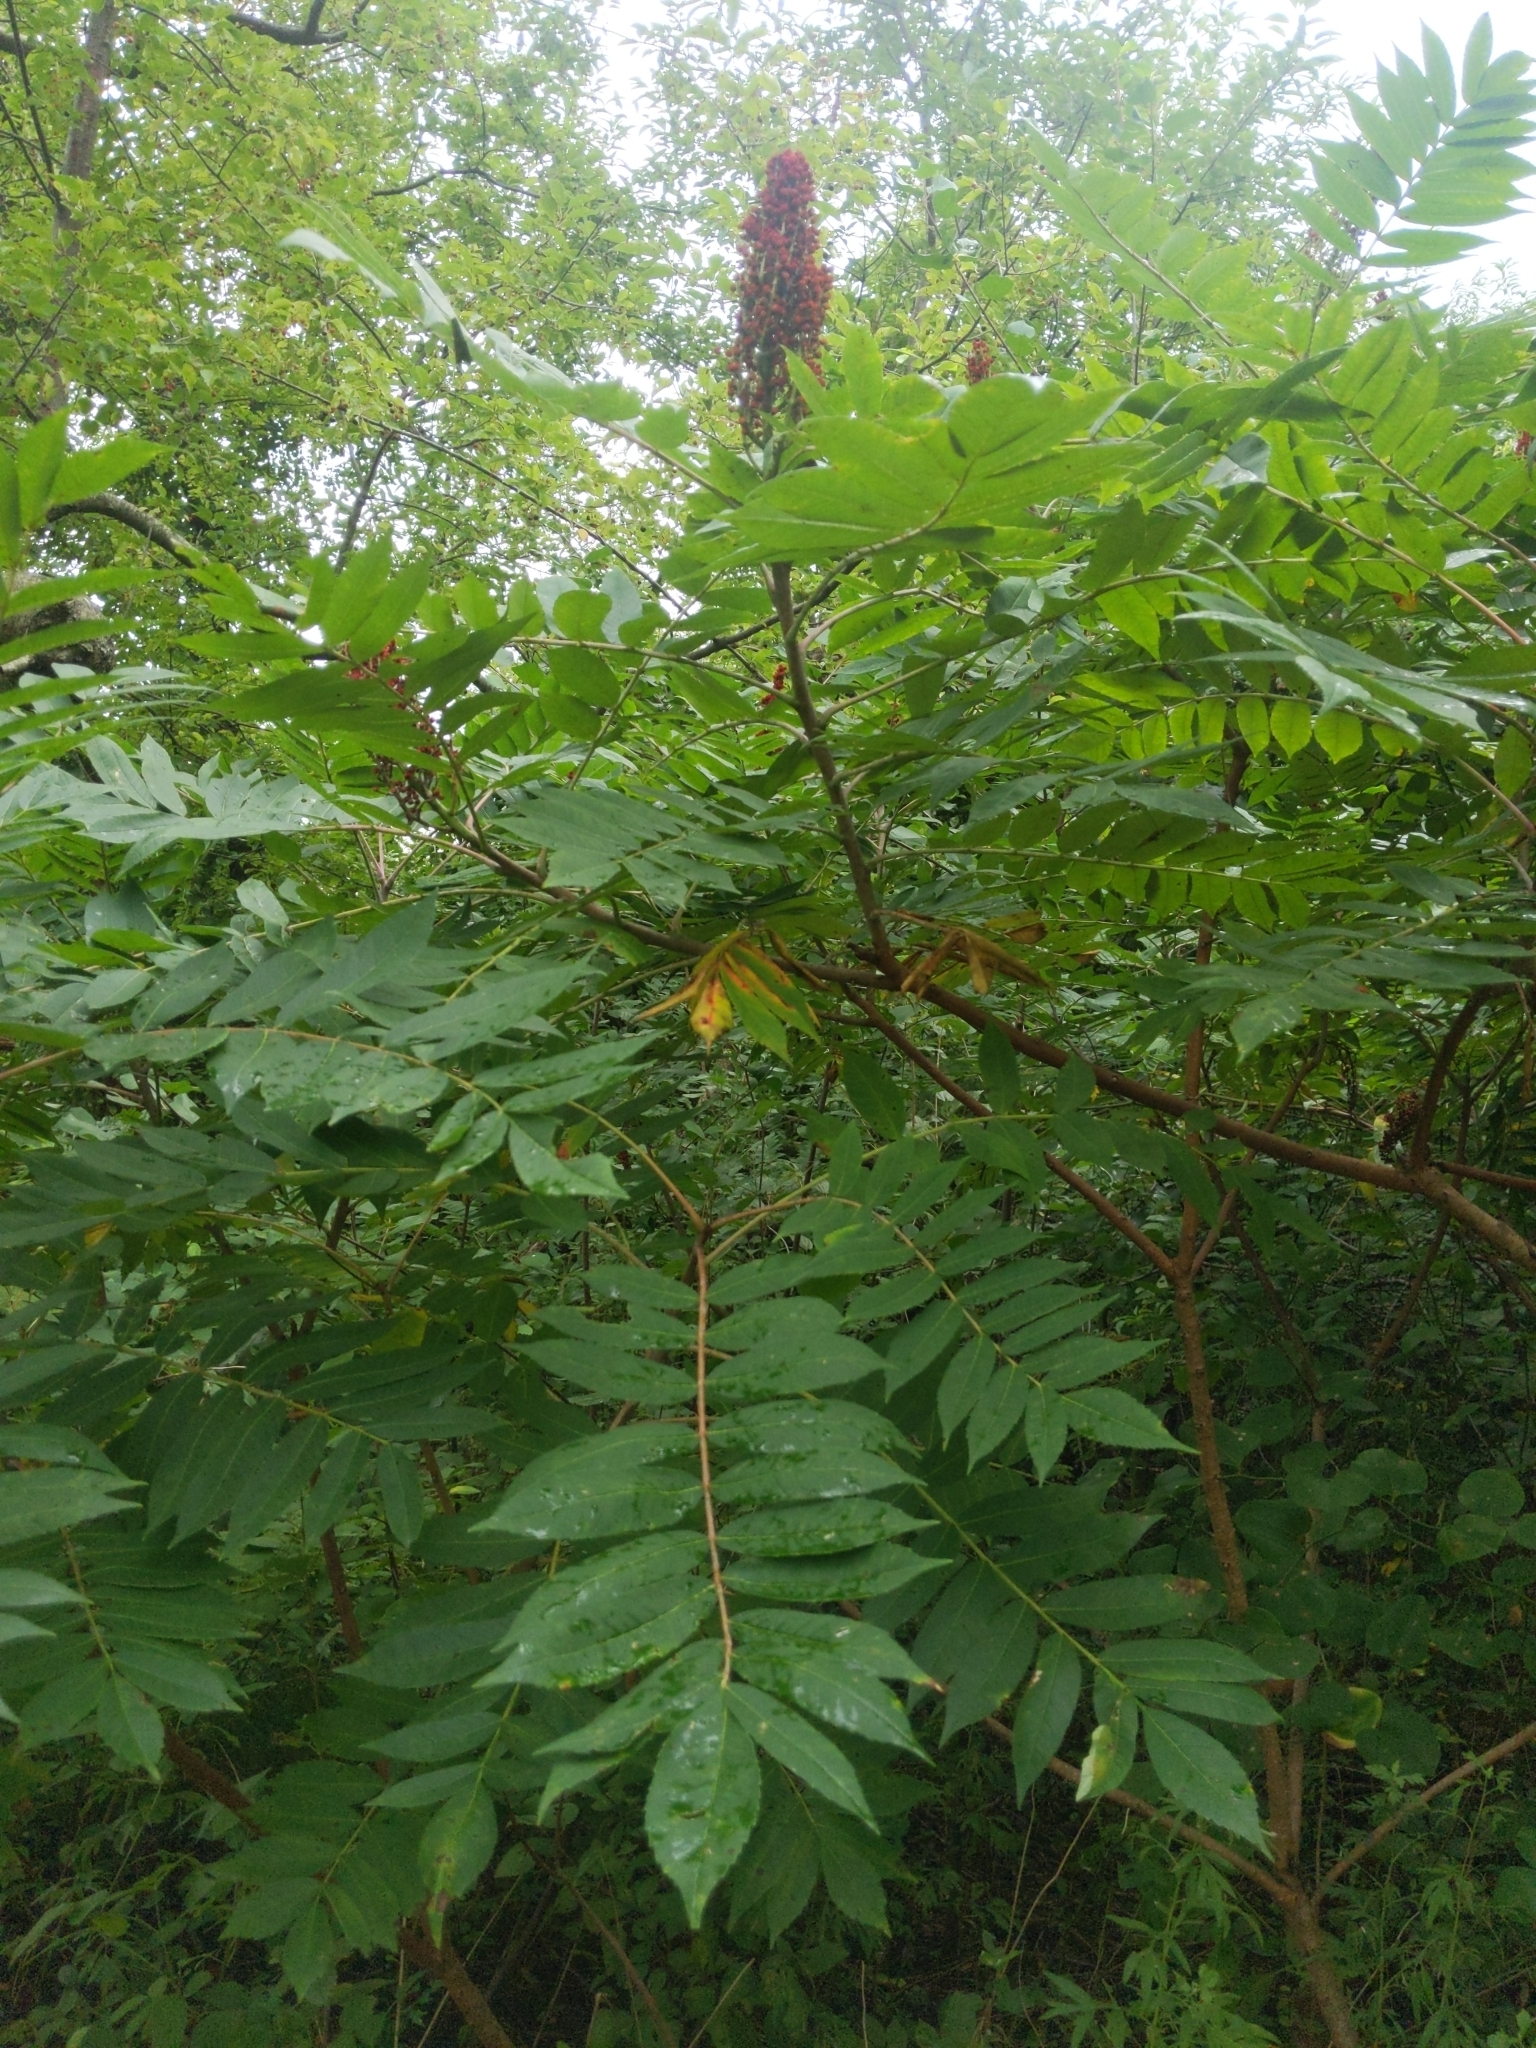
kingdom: Plantae
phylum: Tracheophyta
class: Magnoliopsida
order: Sapindales
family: Anacardiaceae
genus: Rhus
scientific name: Rhus glabra
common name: Scarlet sumac
